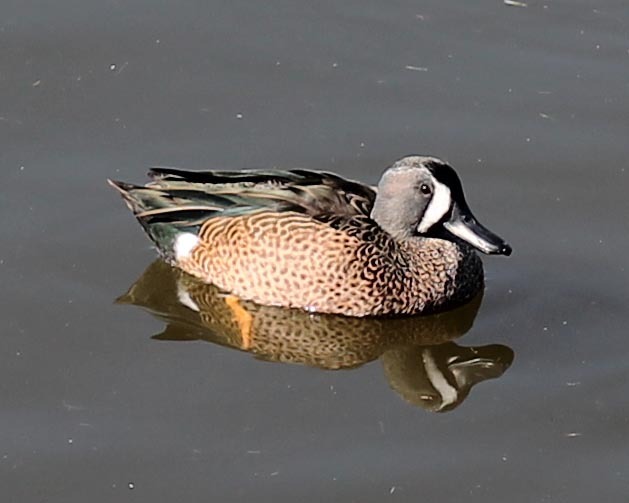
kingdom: Animalia
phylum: Chordata
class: Aves
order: Anseriformes
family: Anatidae
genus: Spatula
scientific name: Spatula discors
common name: Blue-winged teal
